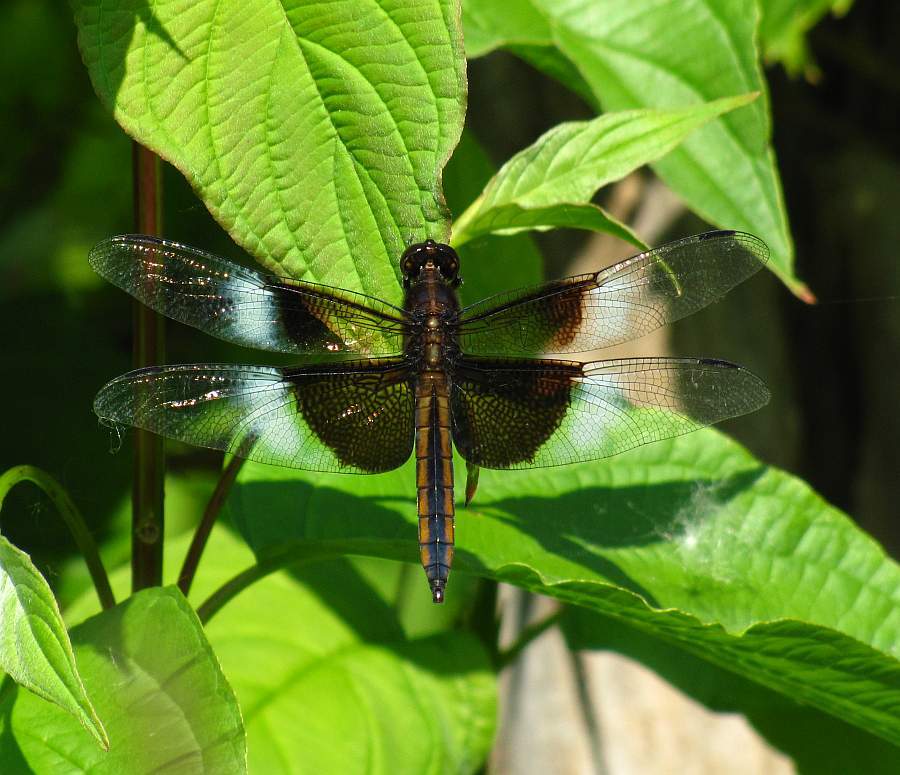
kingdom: Animalia
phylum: Arthropoda
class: Insecta
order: Odonata
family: Libellulidae
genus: Libellula
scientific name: Libellula luctuosa
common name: Widow skimmer
